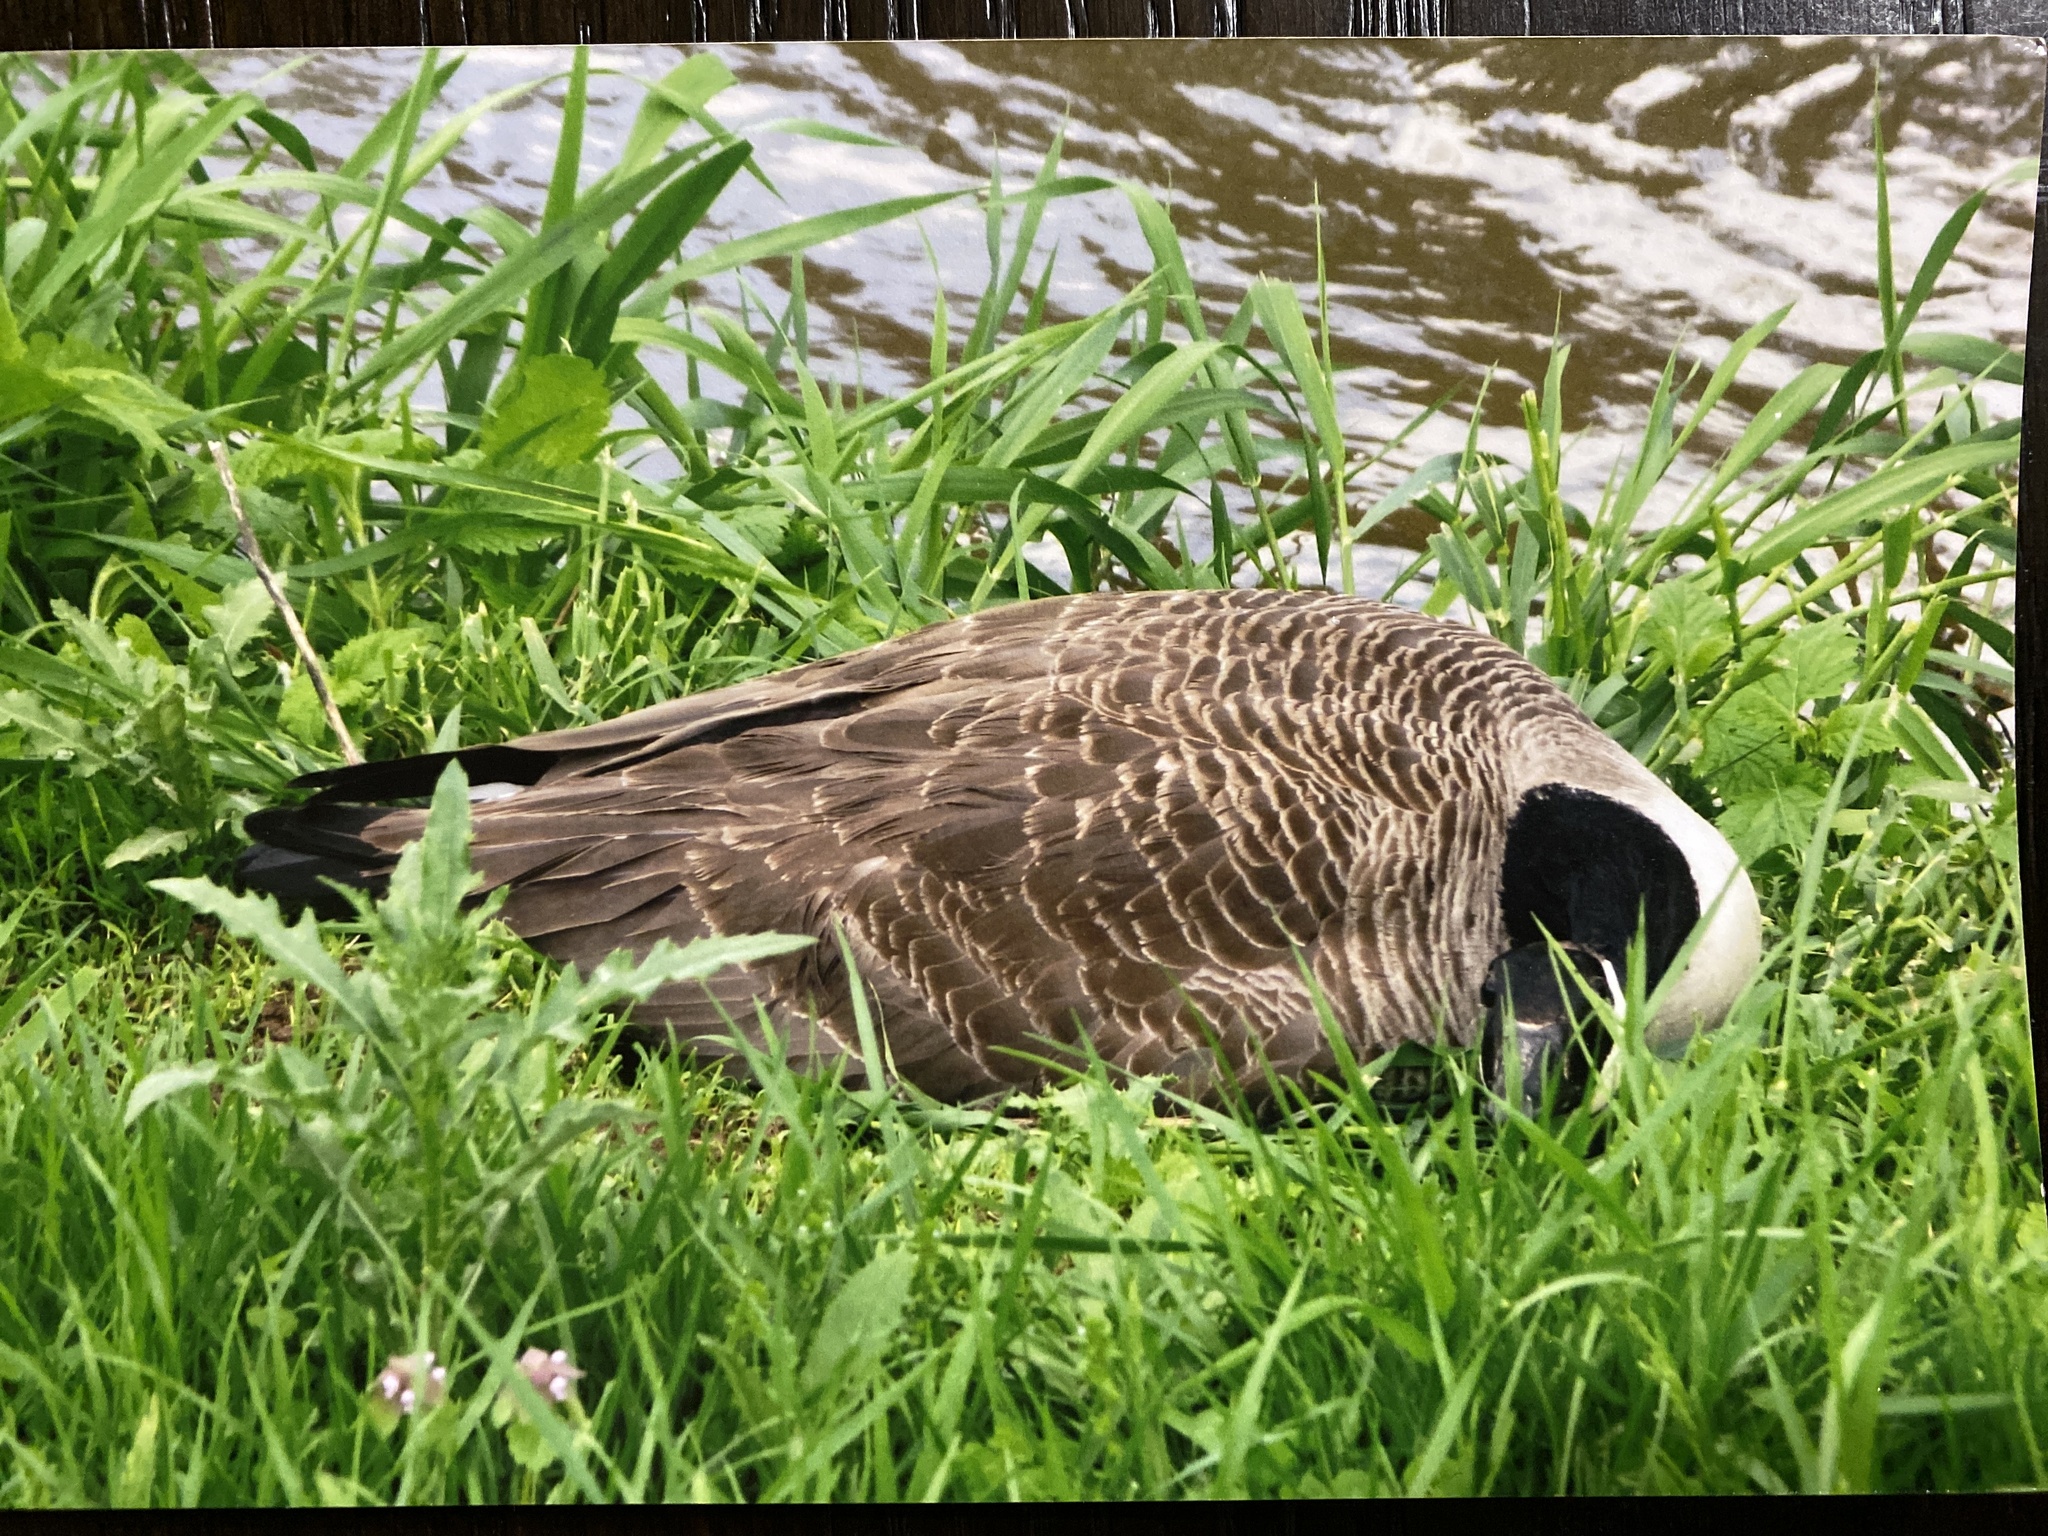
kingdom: Animalia
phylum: Chordata
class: Aves
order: Anseriformes
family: Anatidae
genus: Branta
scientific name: Branta canadensis
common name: Canada goose
